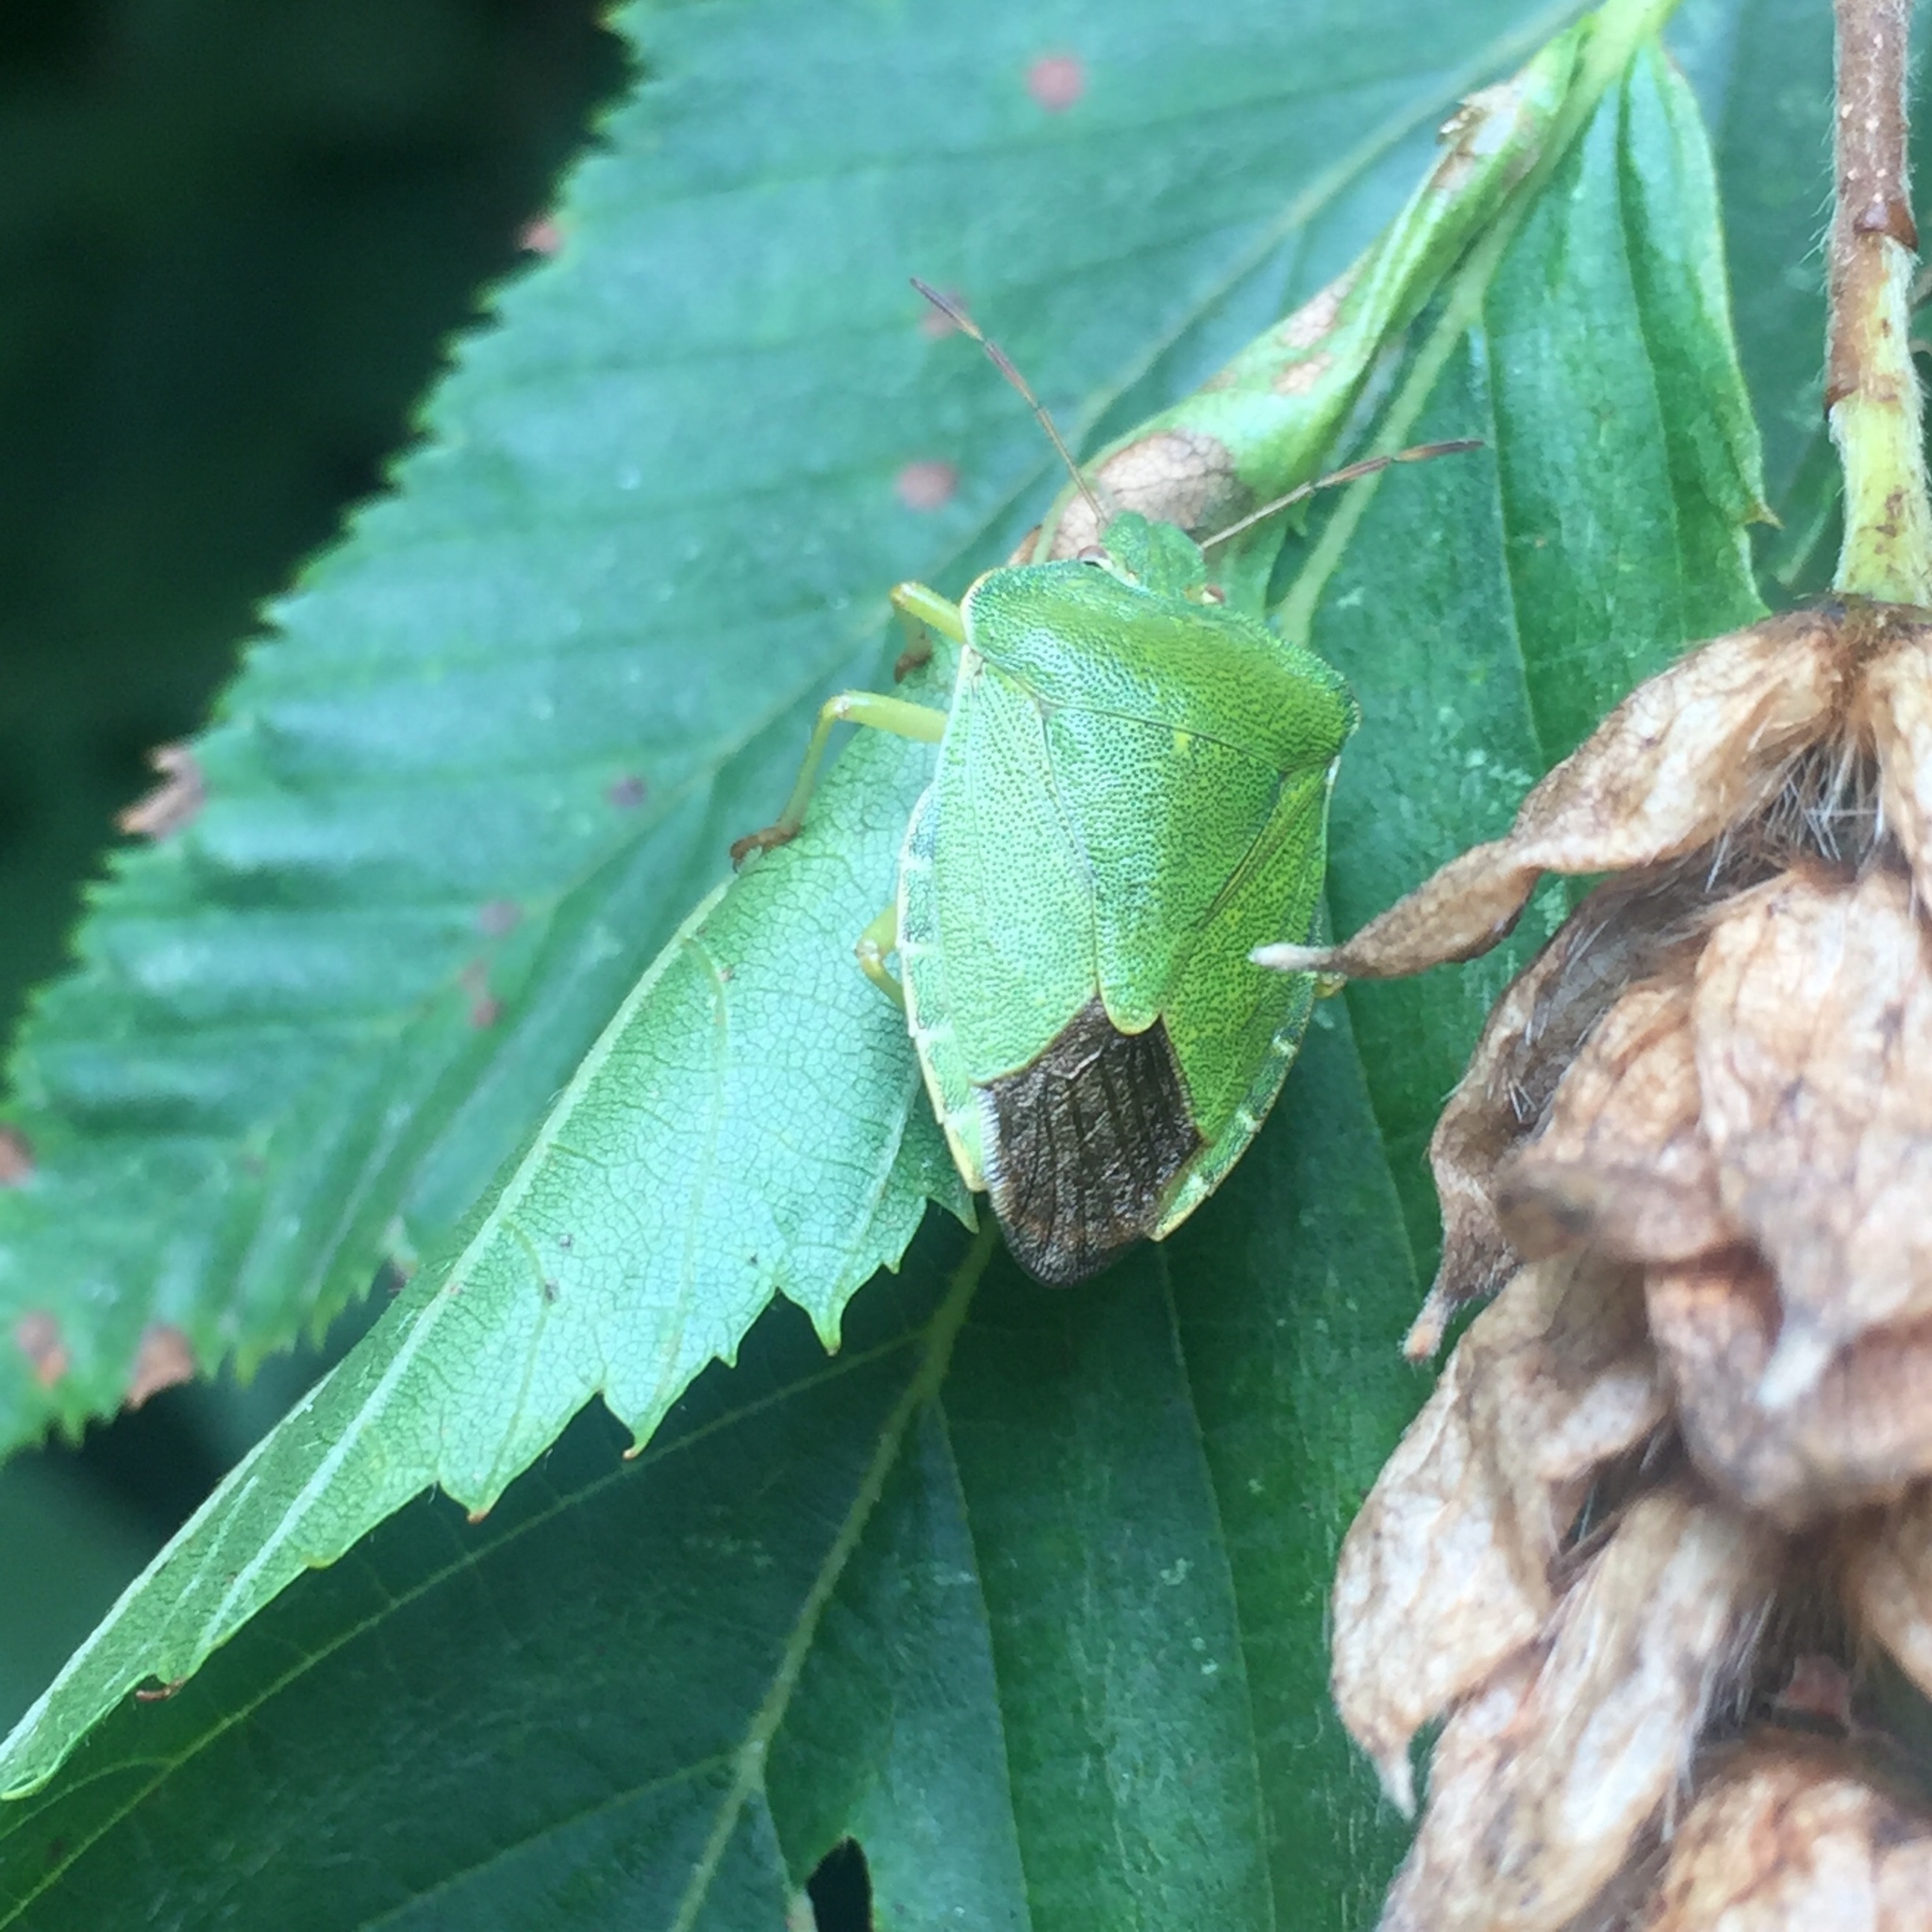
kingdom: Animalia
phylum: Arthropoda
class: Insecta
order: Hemiptera
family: Pentatomidae
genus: Palomena
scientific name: Palomena prasina
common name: Green shieldbug
